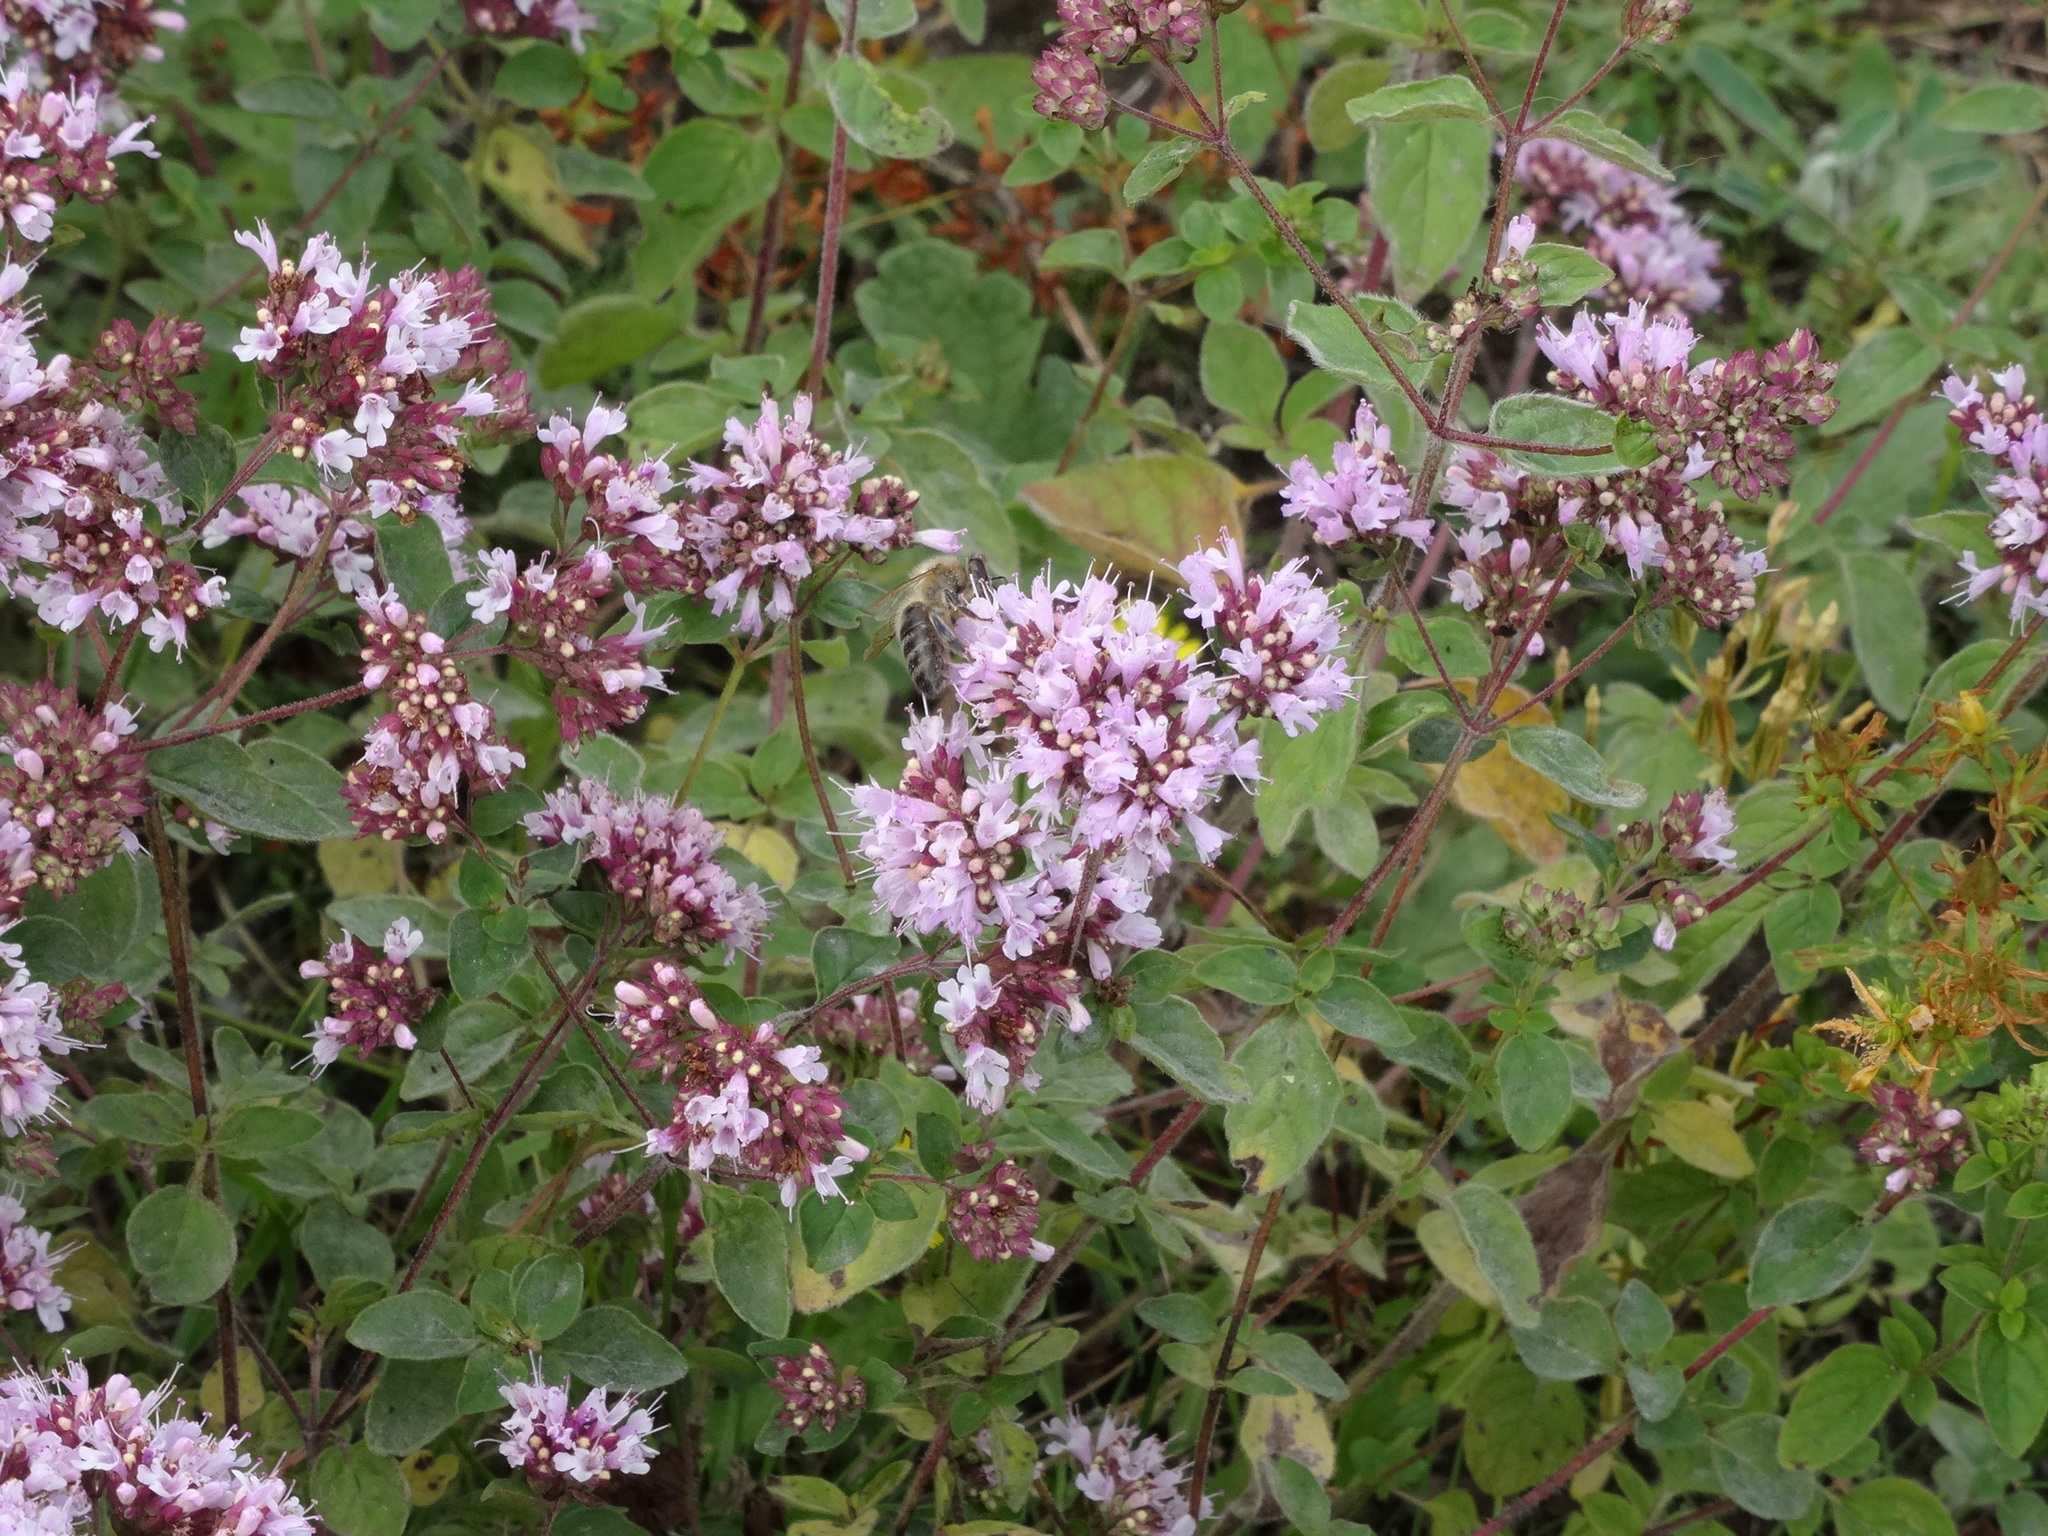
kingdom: Plantae
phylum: Tracheophyta
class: Magnoliopsida
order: Lamiales
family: Lamiaceae
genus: Origanum
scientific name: Origanum vulgare
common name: Wild marjoram
